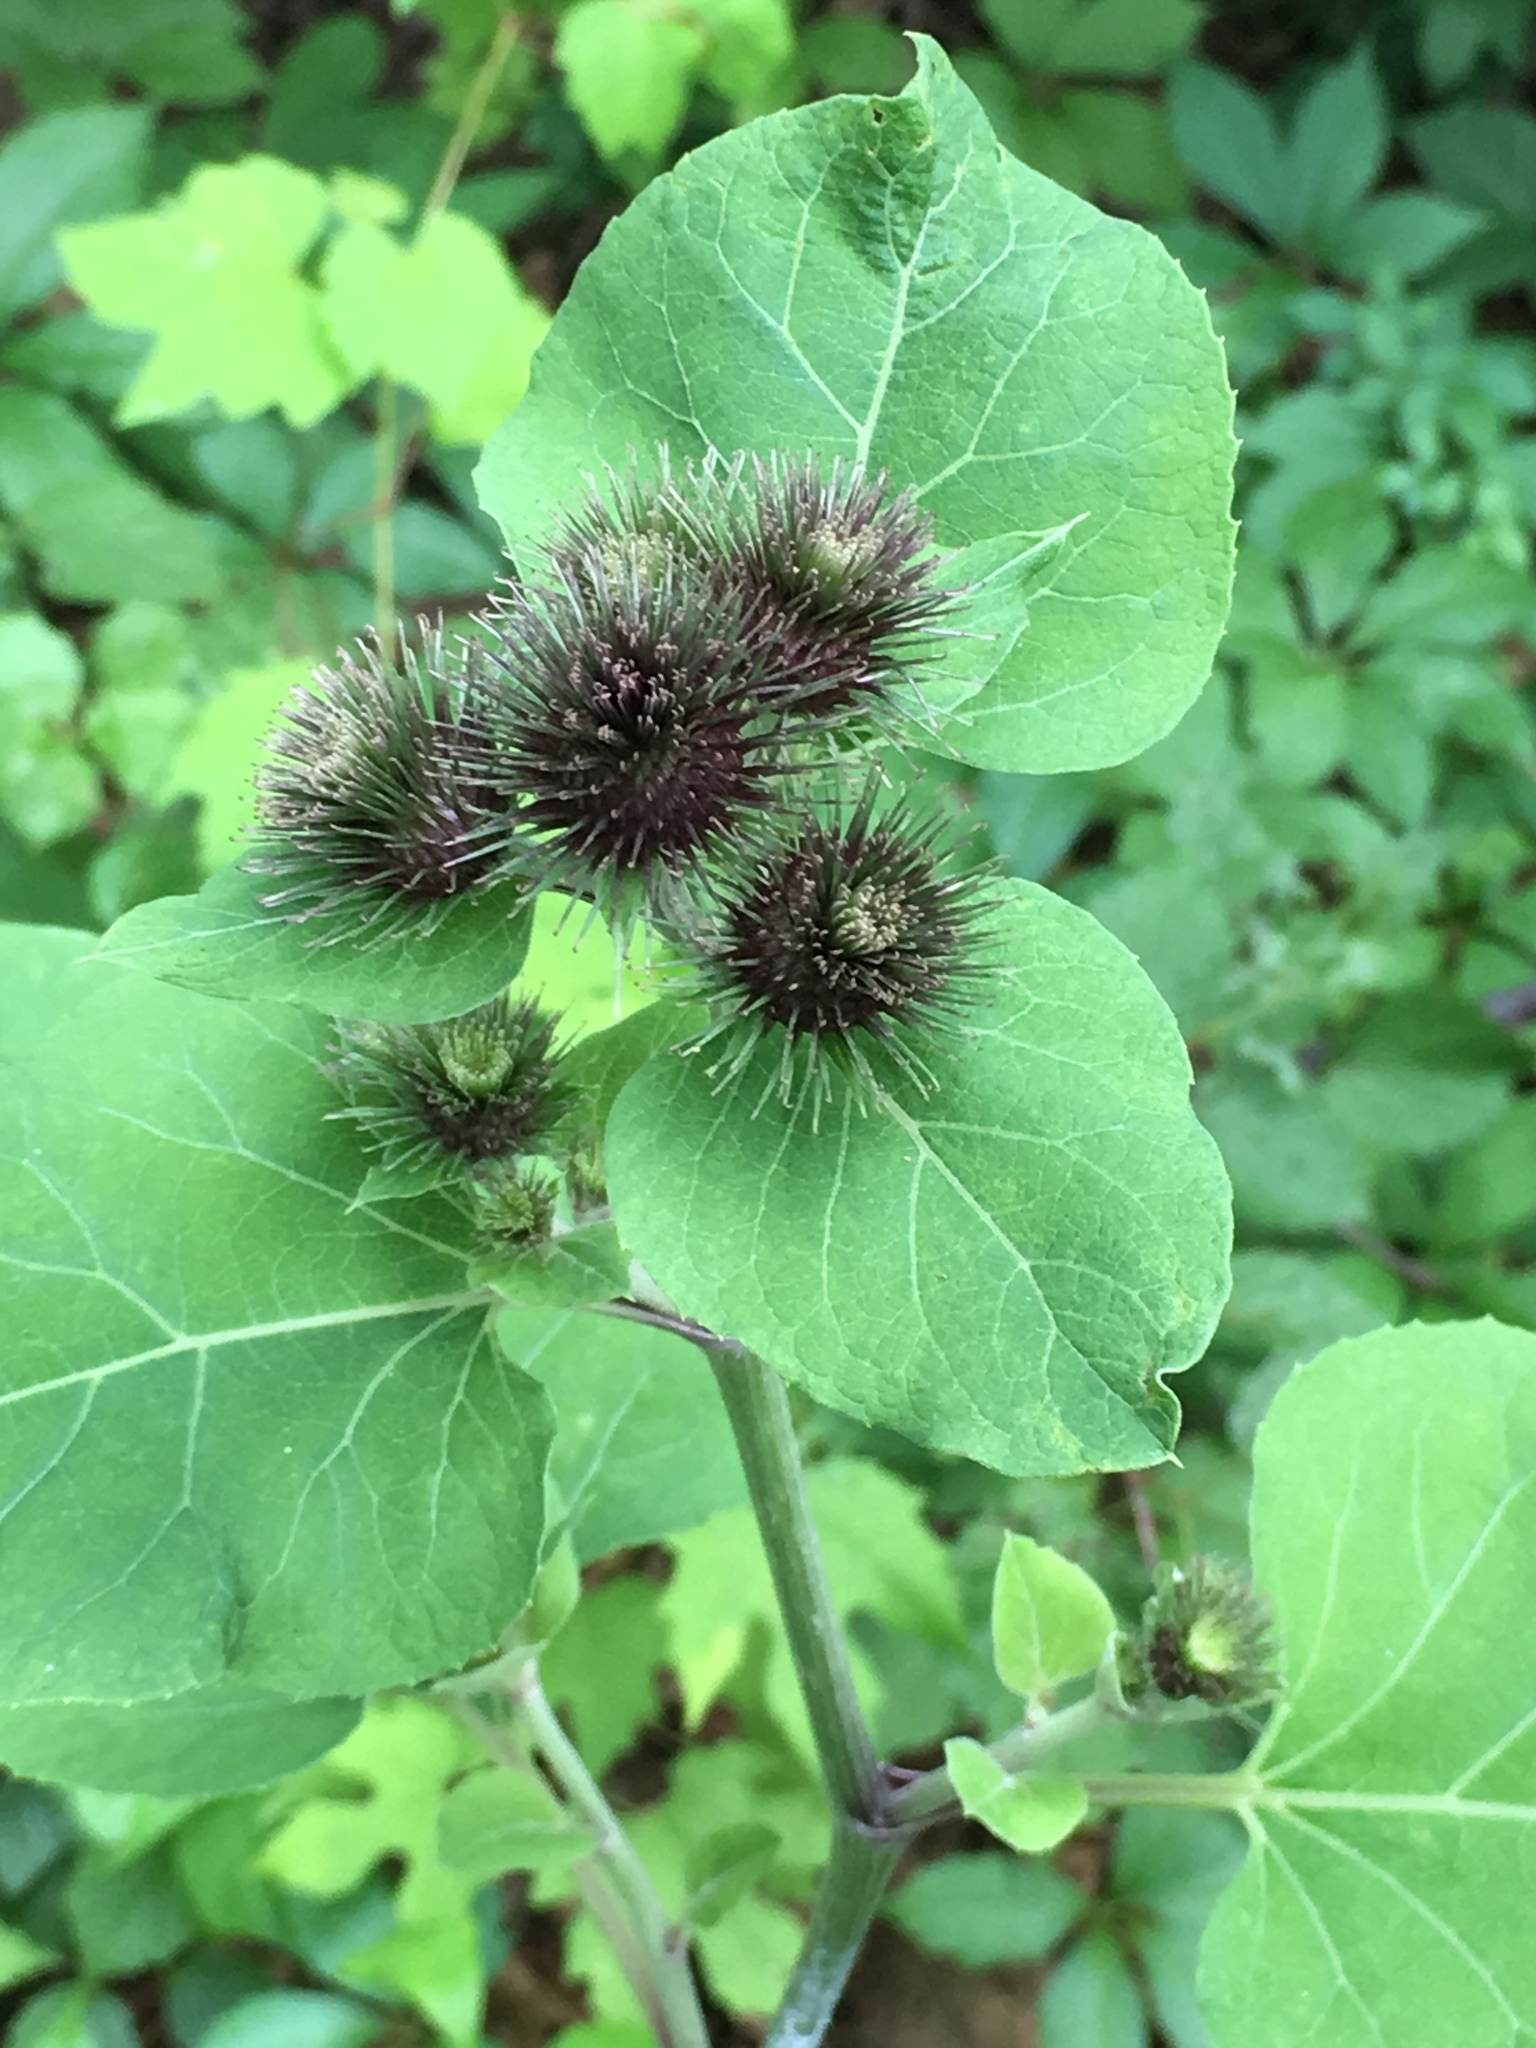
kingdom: Plantae
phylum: Tracheophyta
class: Magnoliopsida
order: Asterales
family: Asteraceae
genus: Arctium
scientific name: Arctium minus
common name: Lesser burdock
